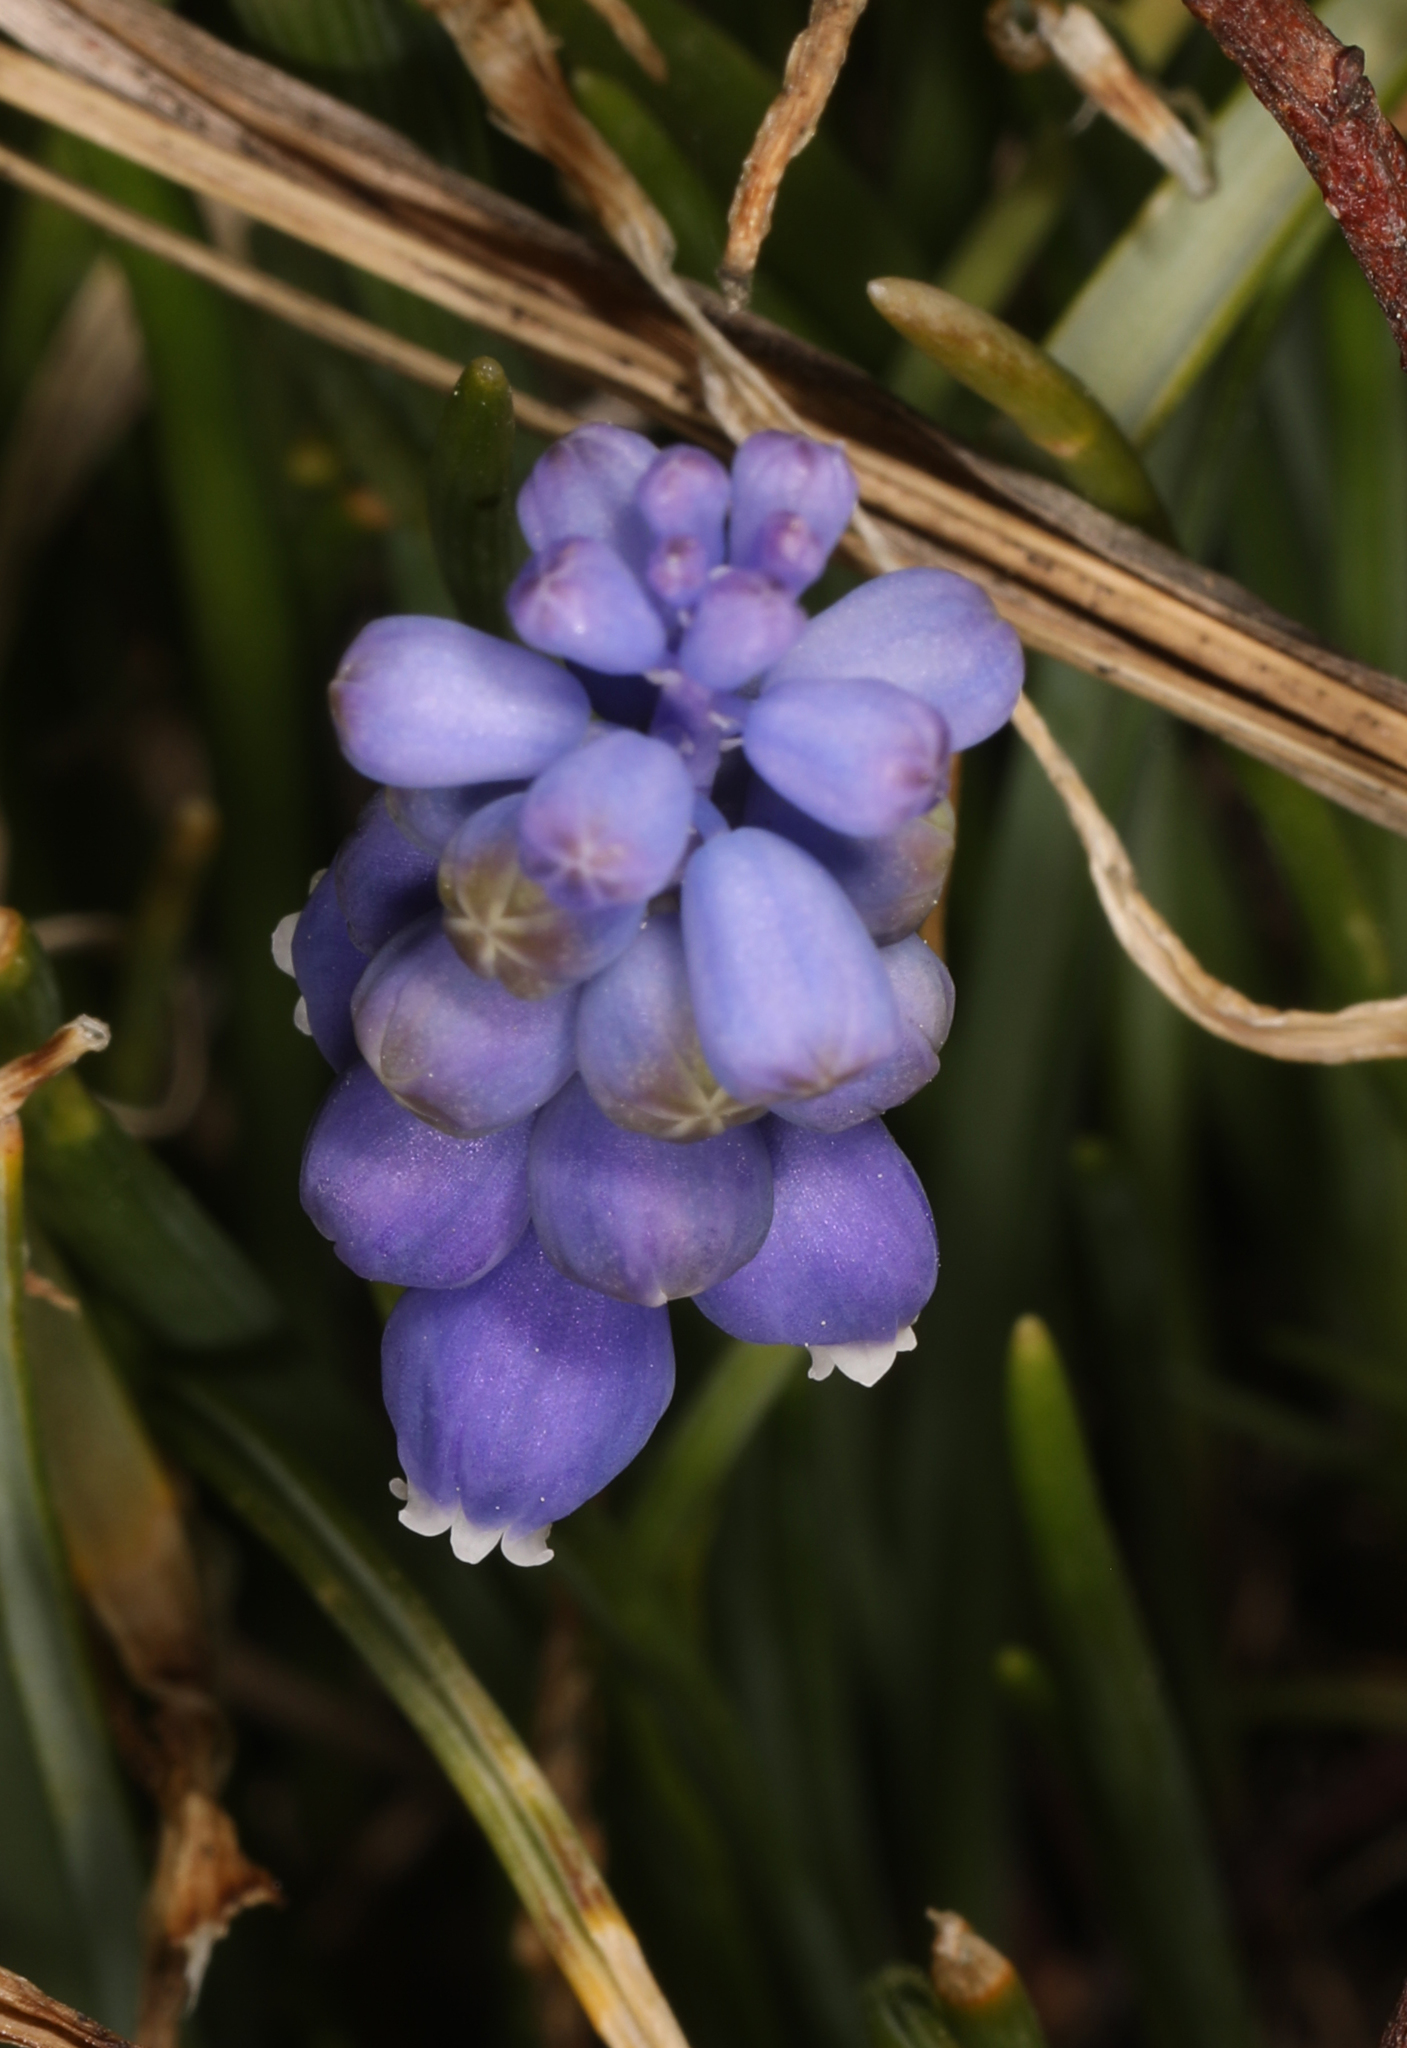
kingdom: Plantae
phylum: Tracheophyta
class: Liliopsida
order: Asparagales
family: Asparagaceae
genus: Muscari
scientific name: Muscari neglectum
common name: Grape-hyacinth
